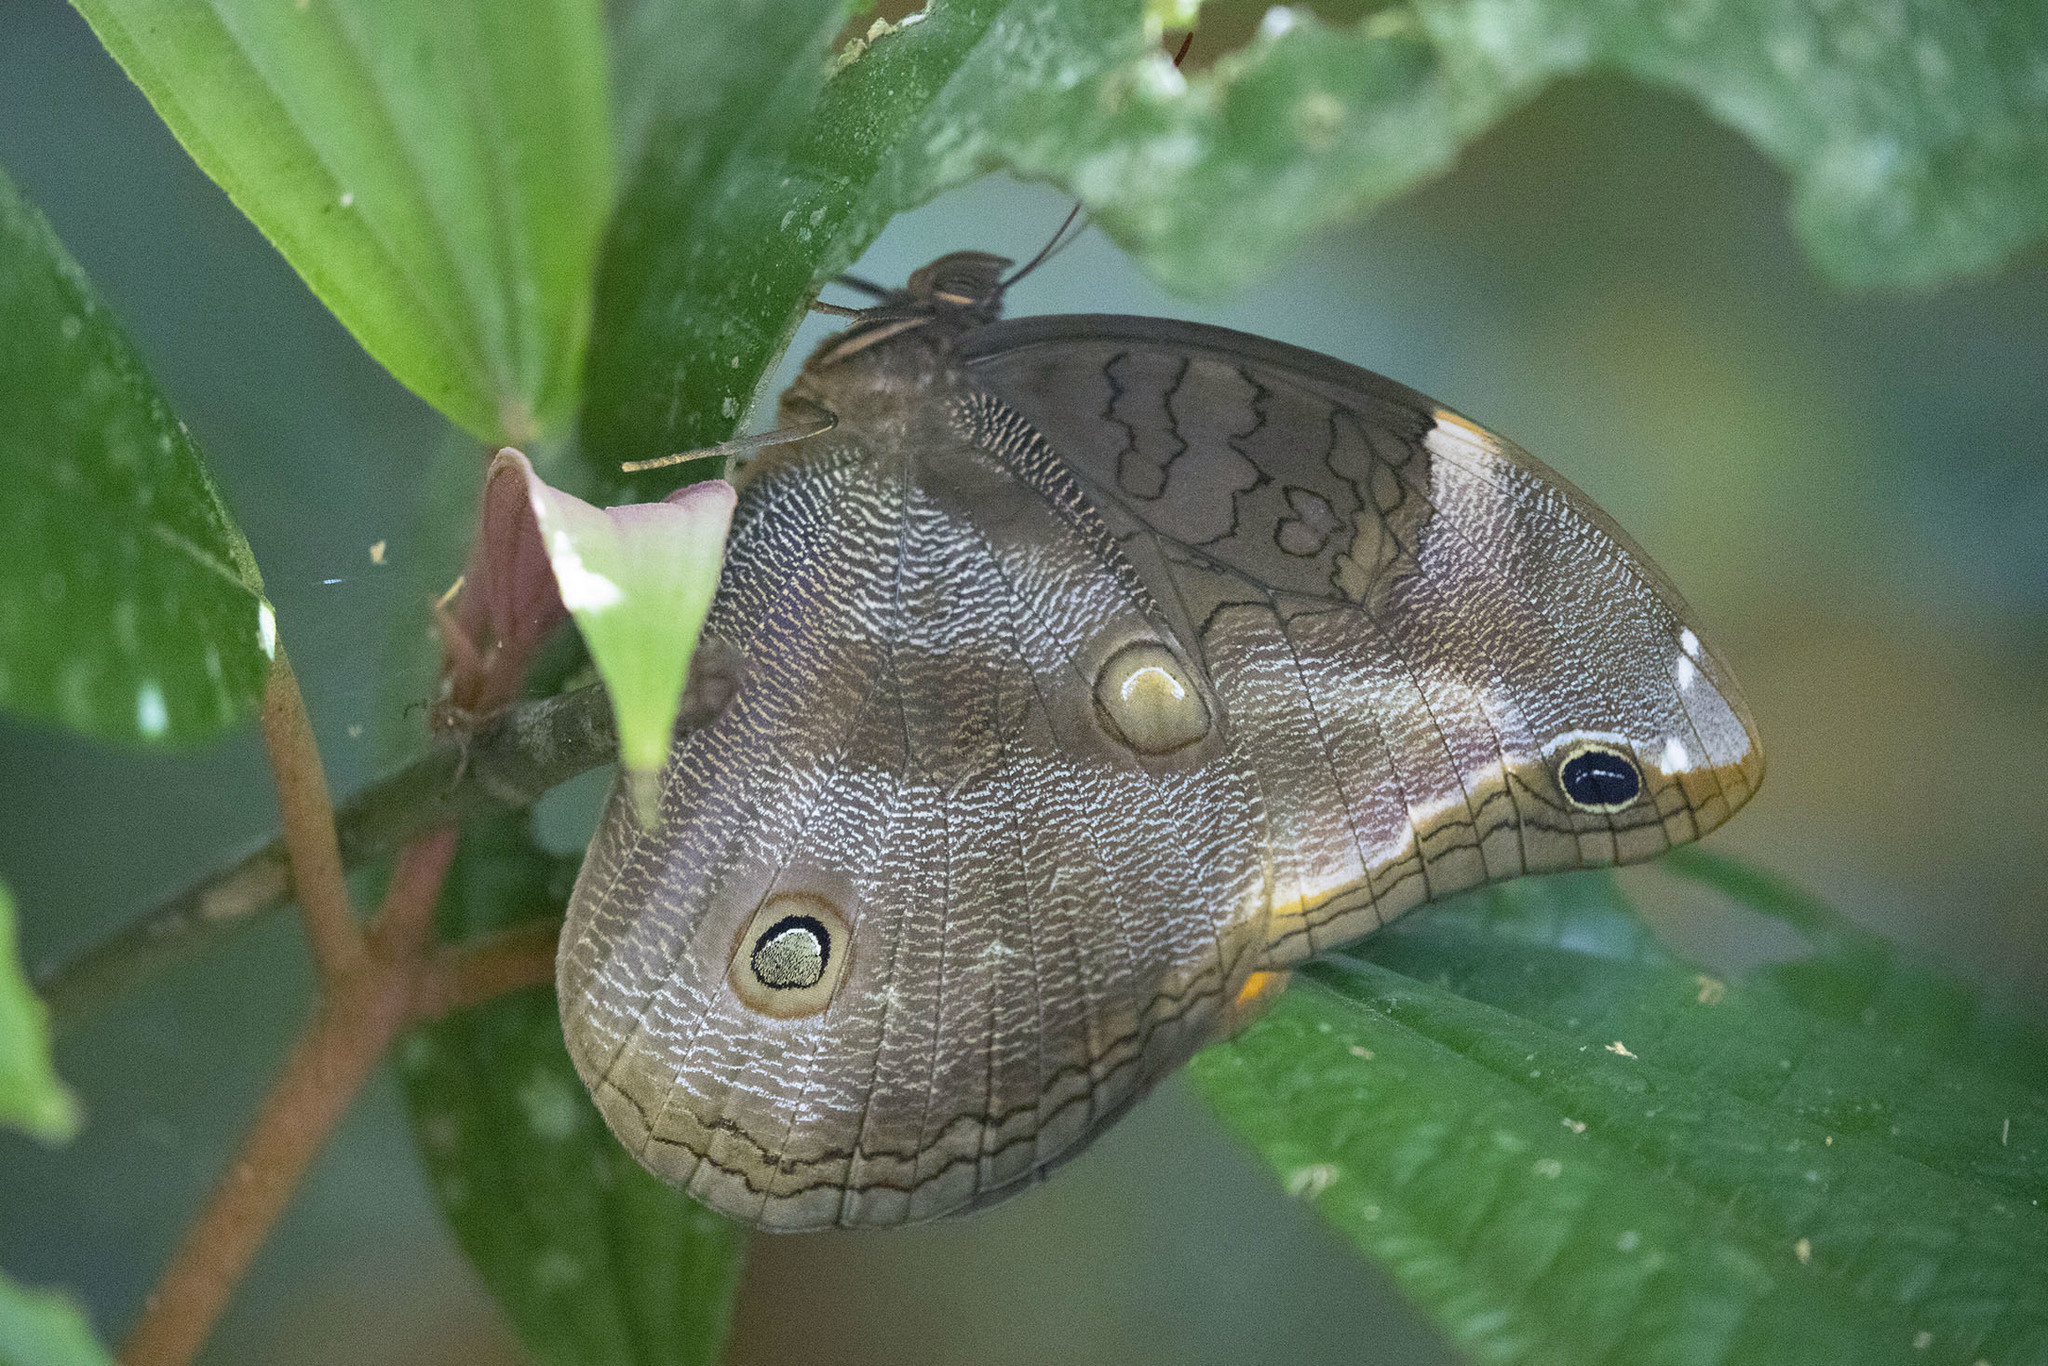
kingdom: Animalia
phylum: Arthropoda
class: Insecta
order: Lepidoptera
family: Nymphalidae
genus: Catoblepia
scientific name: Catoblepia xanthicles
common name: Xanthicles owl-butterfly
